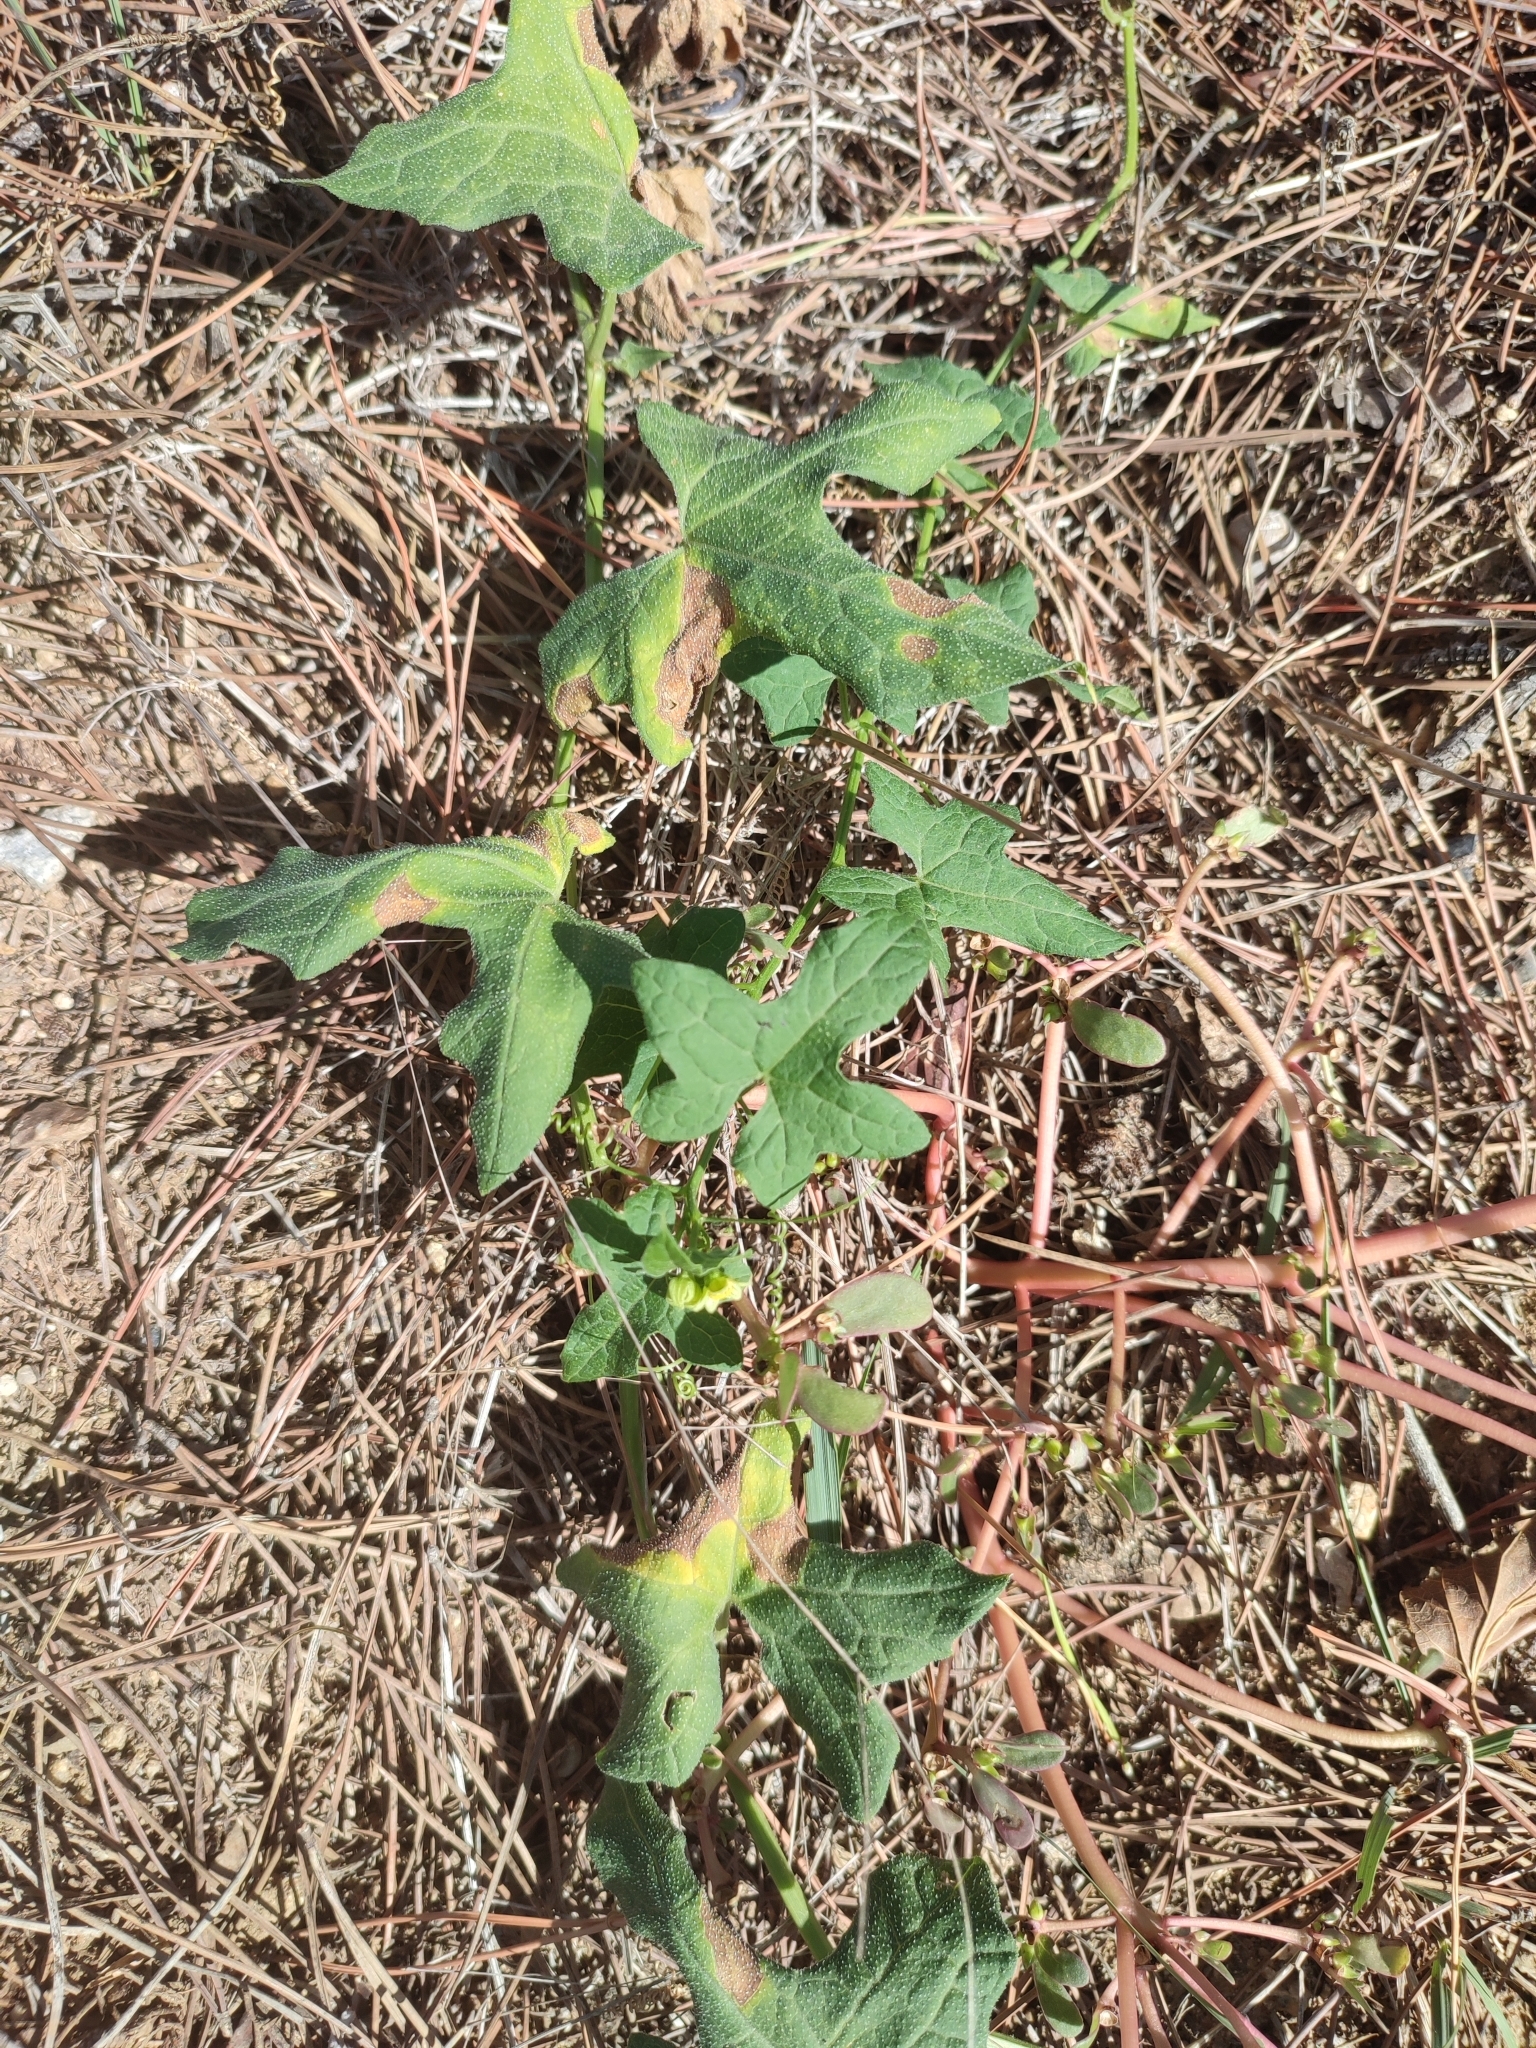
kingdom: Plantae
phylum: Tracheophyta
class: Magnoliopsida
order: Cucurbitales
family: Cucurbitaceae
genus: Bryonia
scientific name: Bryonia cretica
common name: Cretan bryony
